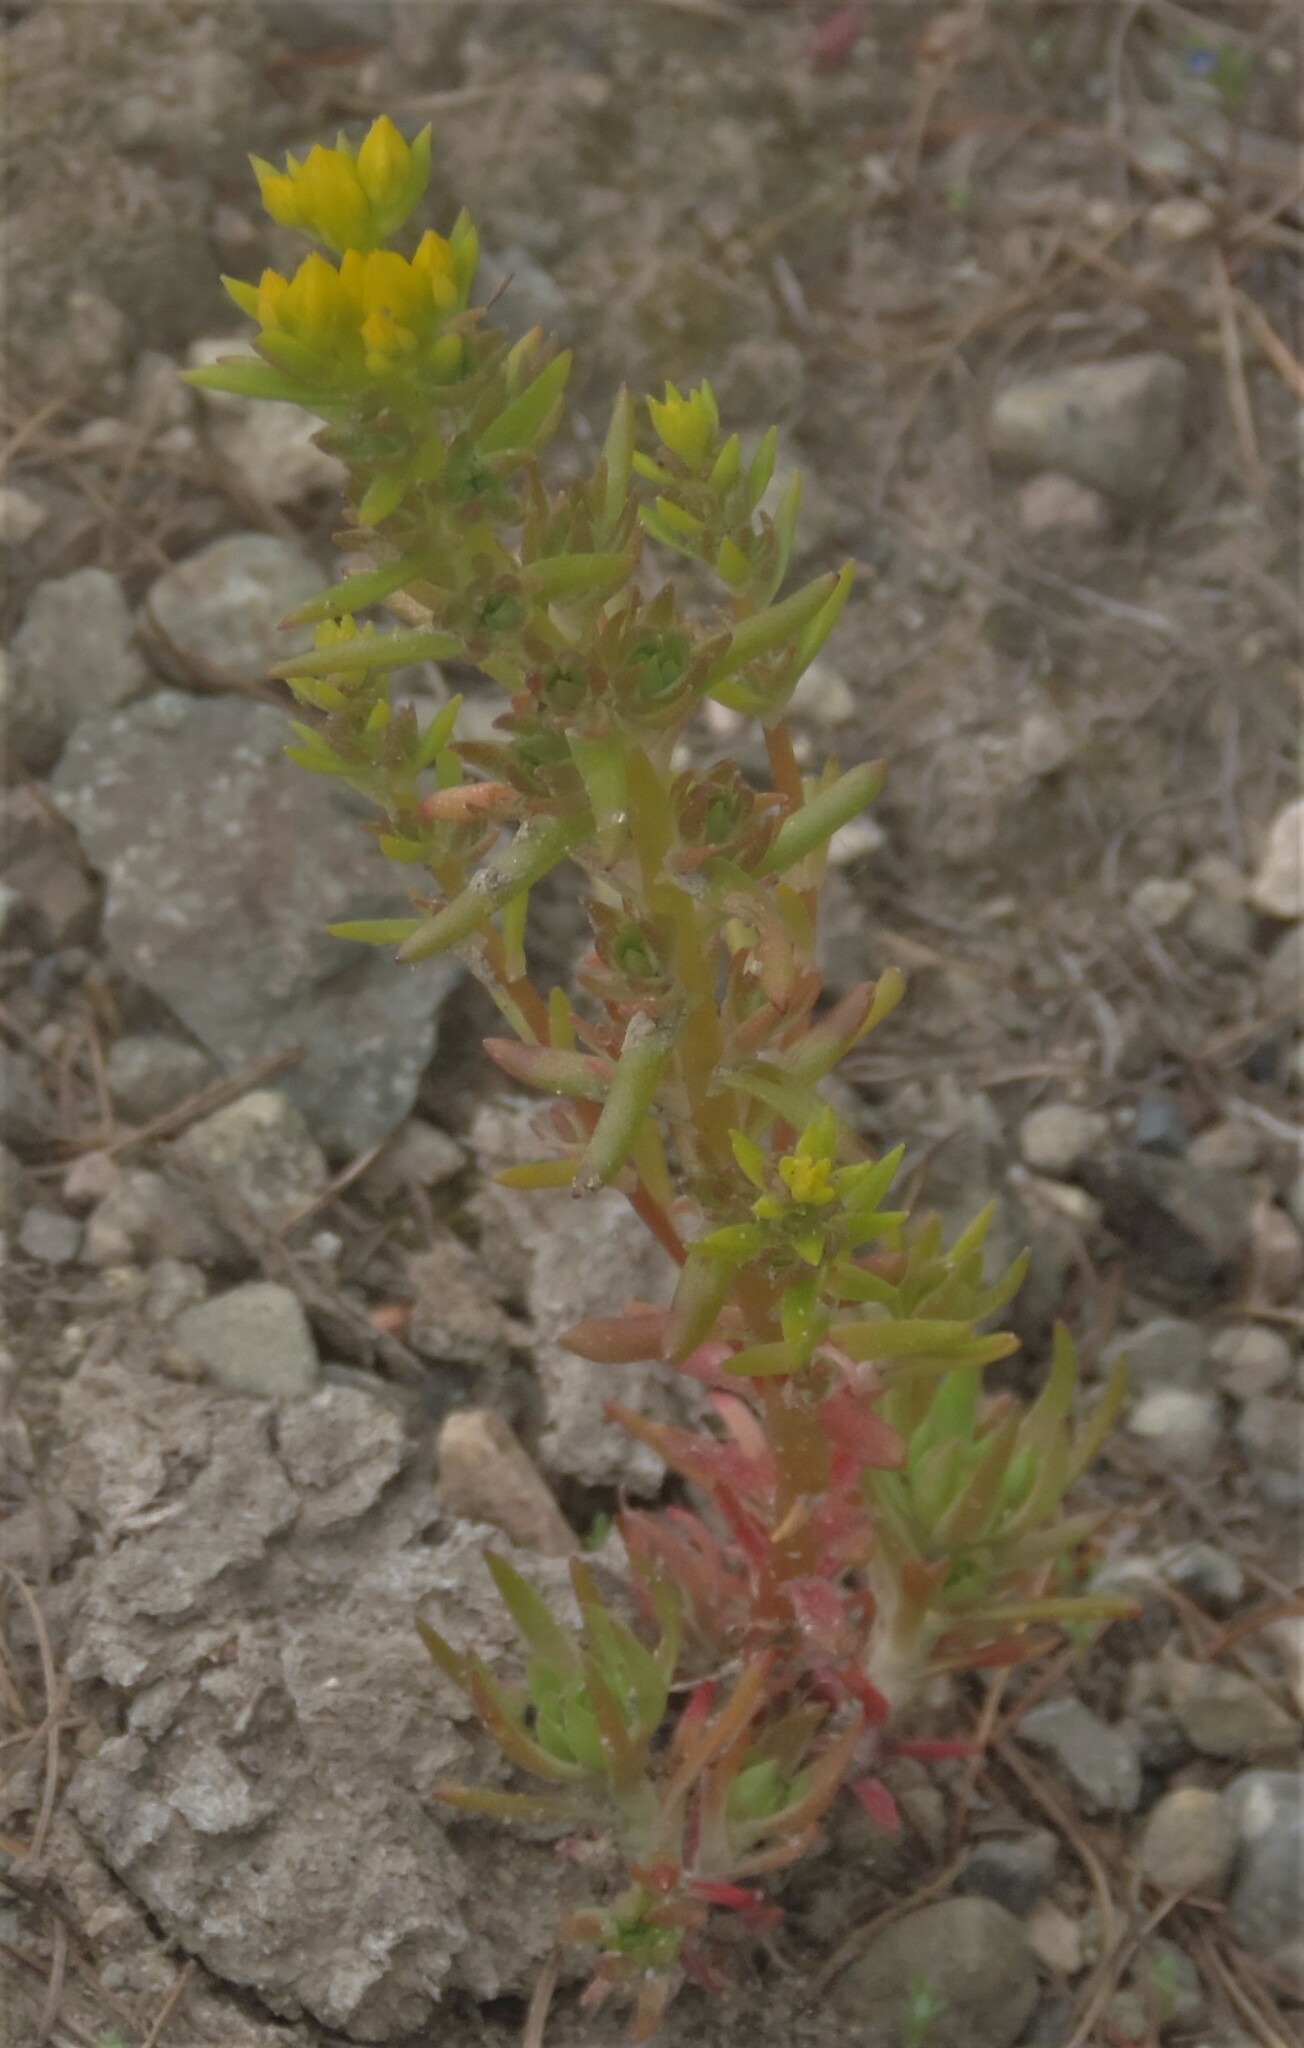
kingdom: Plantae
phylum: Tracheophyta
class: Magnoliopsida
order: Saxifragales
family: Crassulaceae
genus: Sedum
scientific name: Sedum stenopetalum
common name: Narrow-petaled stonecrop
